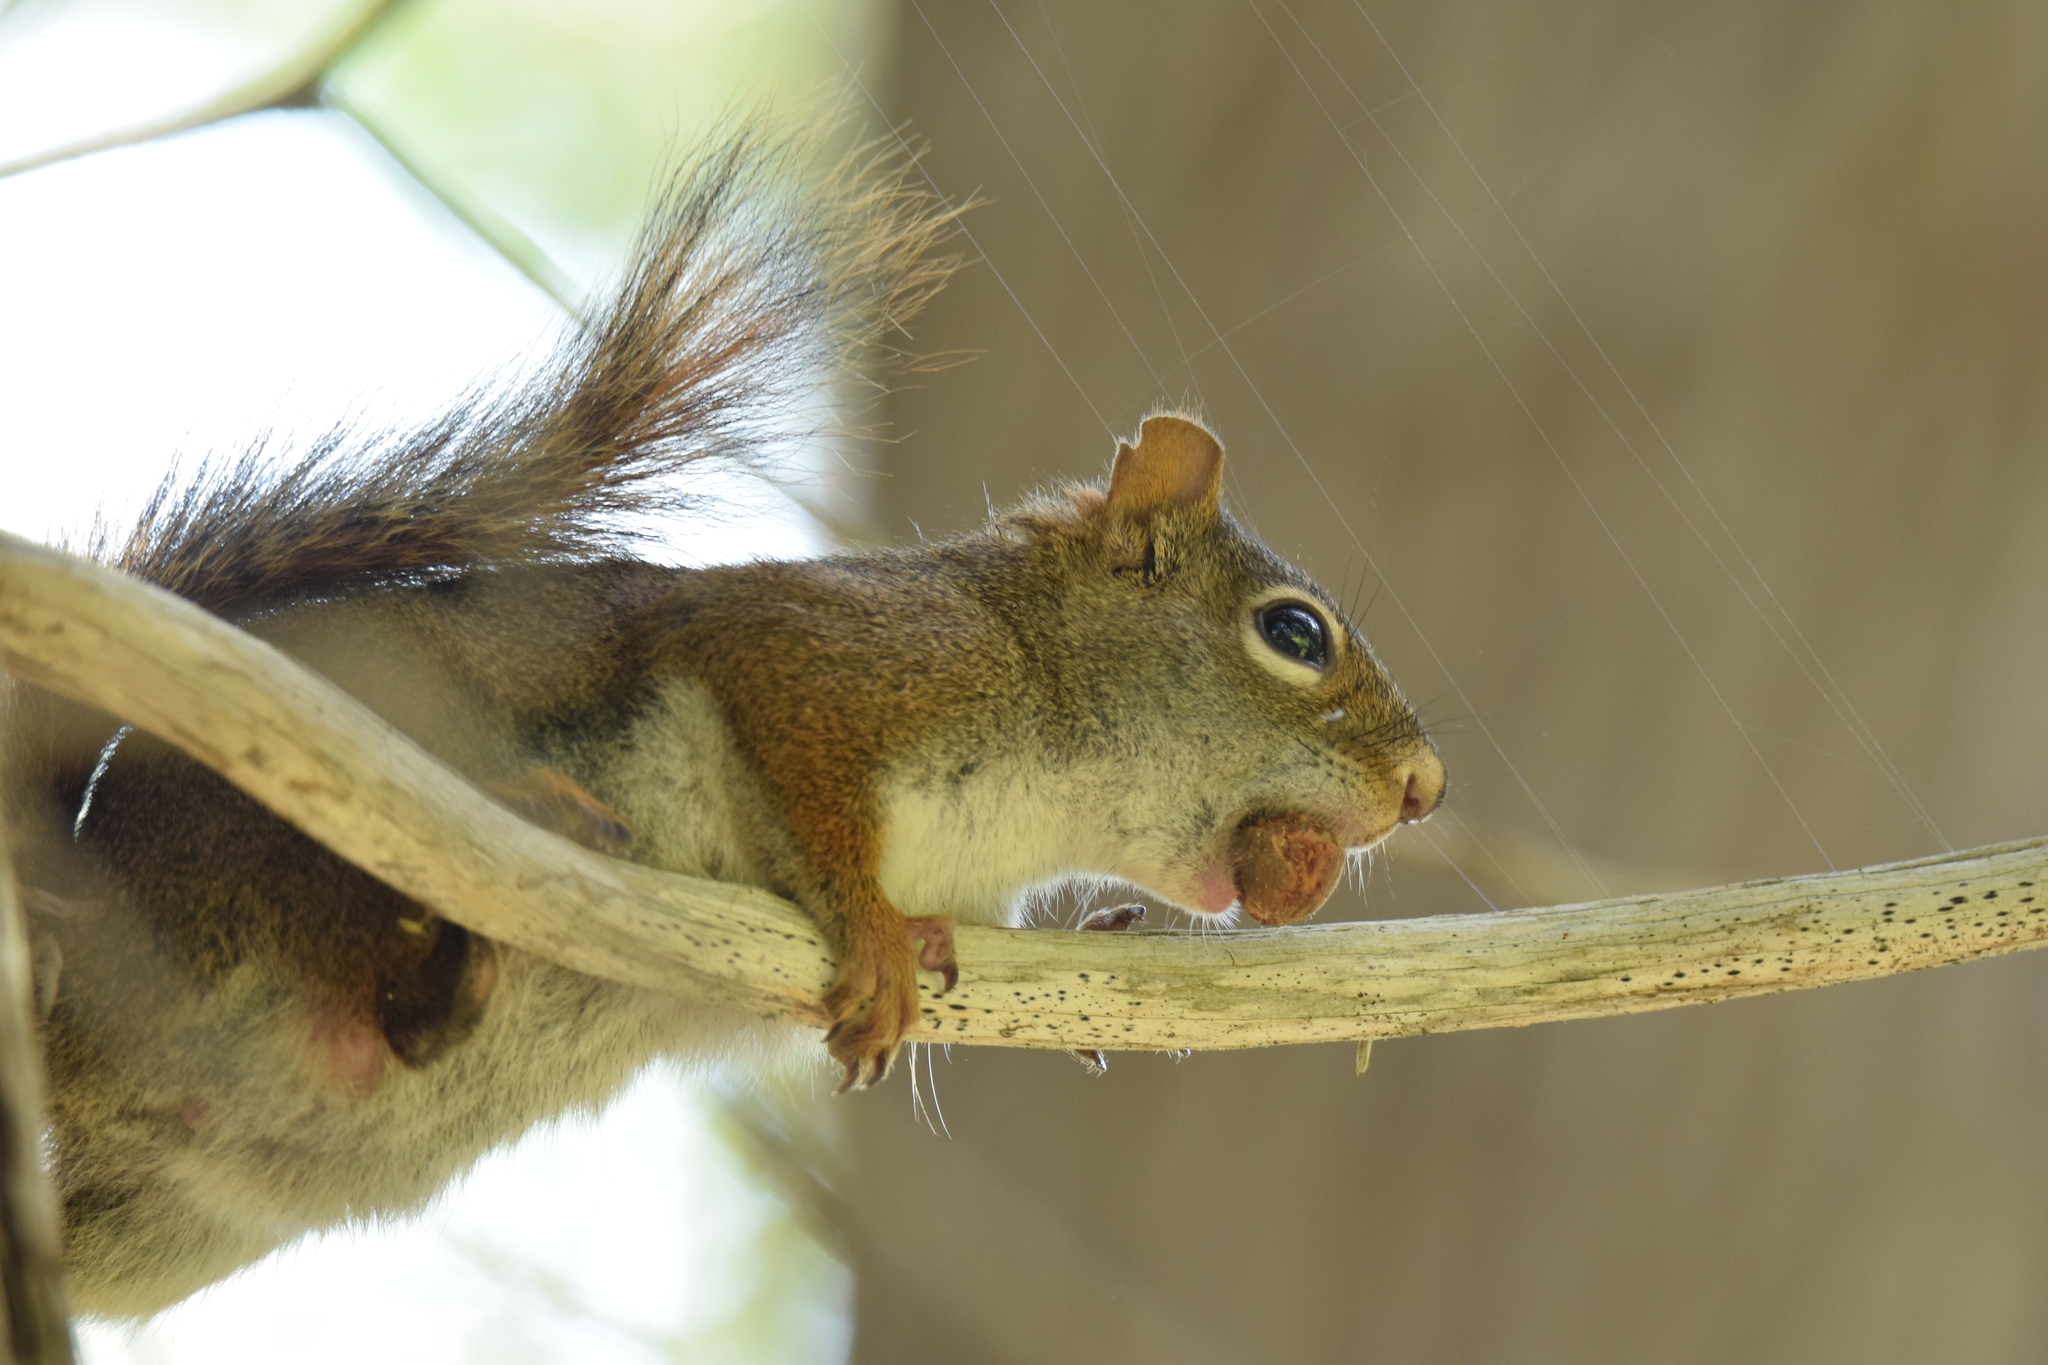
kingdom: Animalia
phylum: Chordata
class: Mammalia
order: Rodentia
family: Sciuridae
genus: Tamiasciurus
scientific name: Tamiasciurus hudsonicus
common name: Red squirrel
